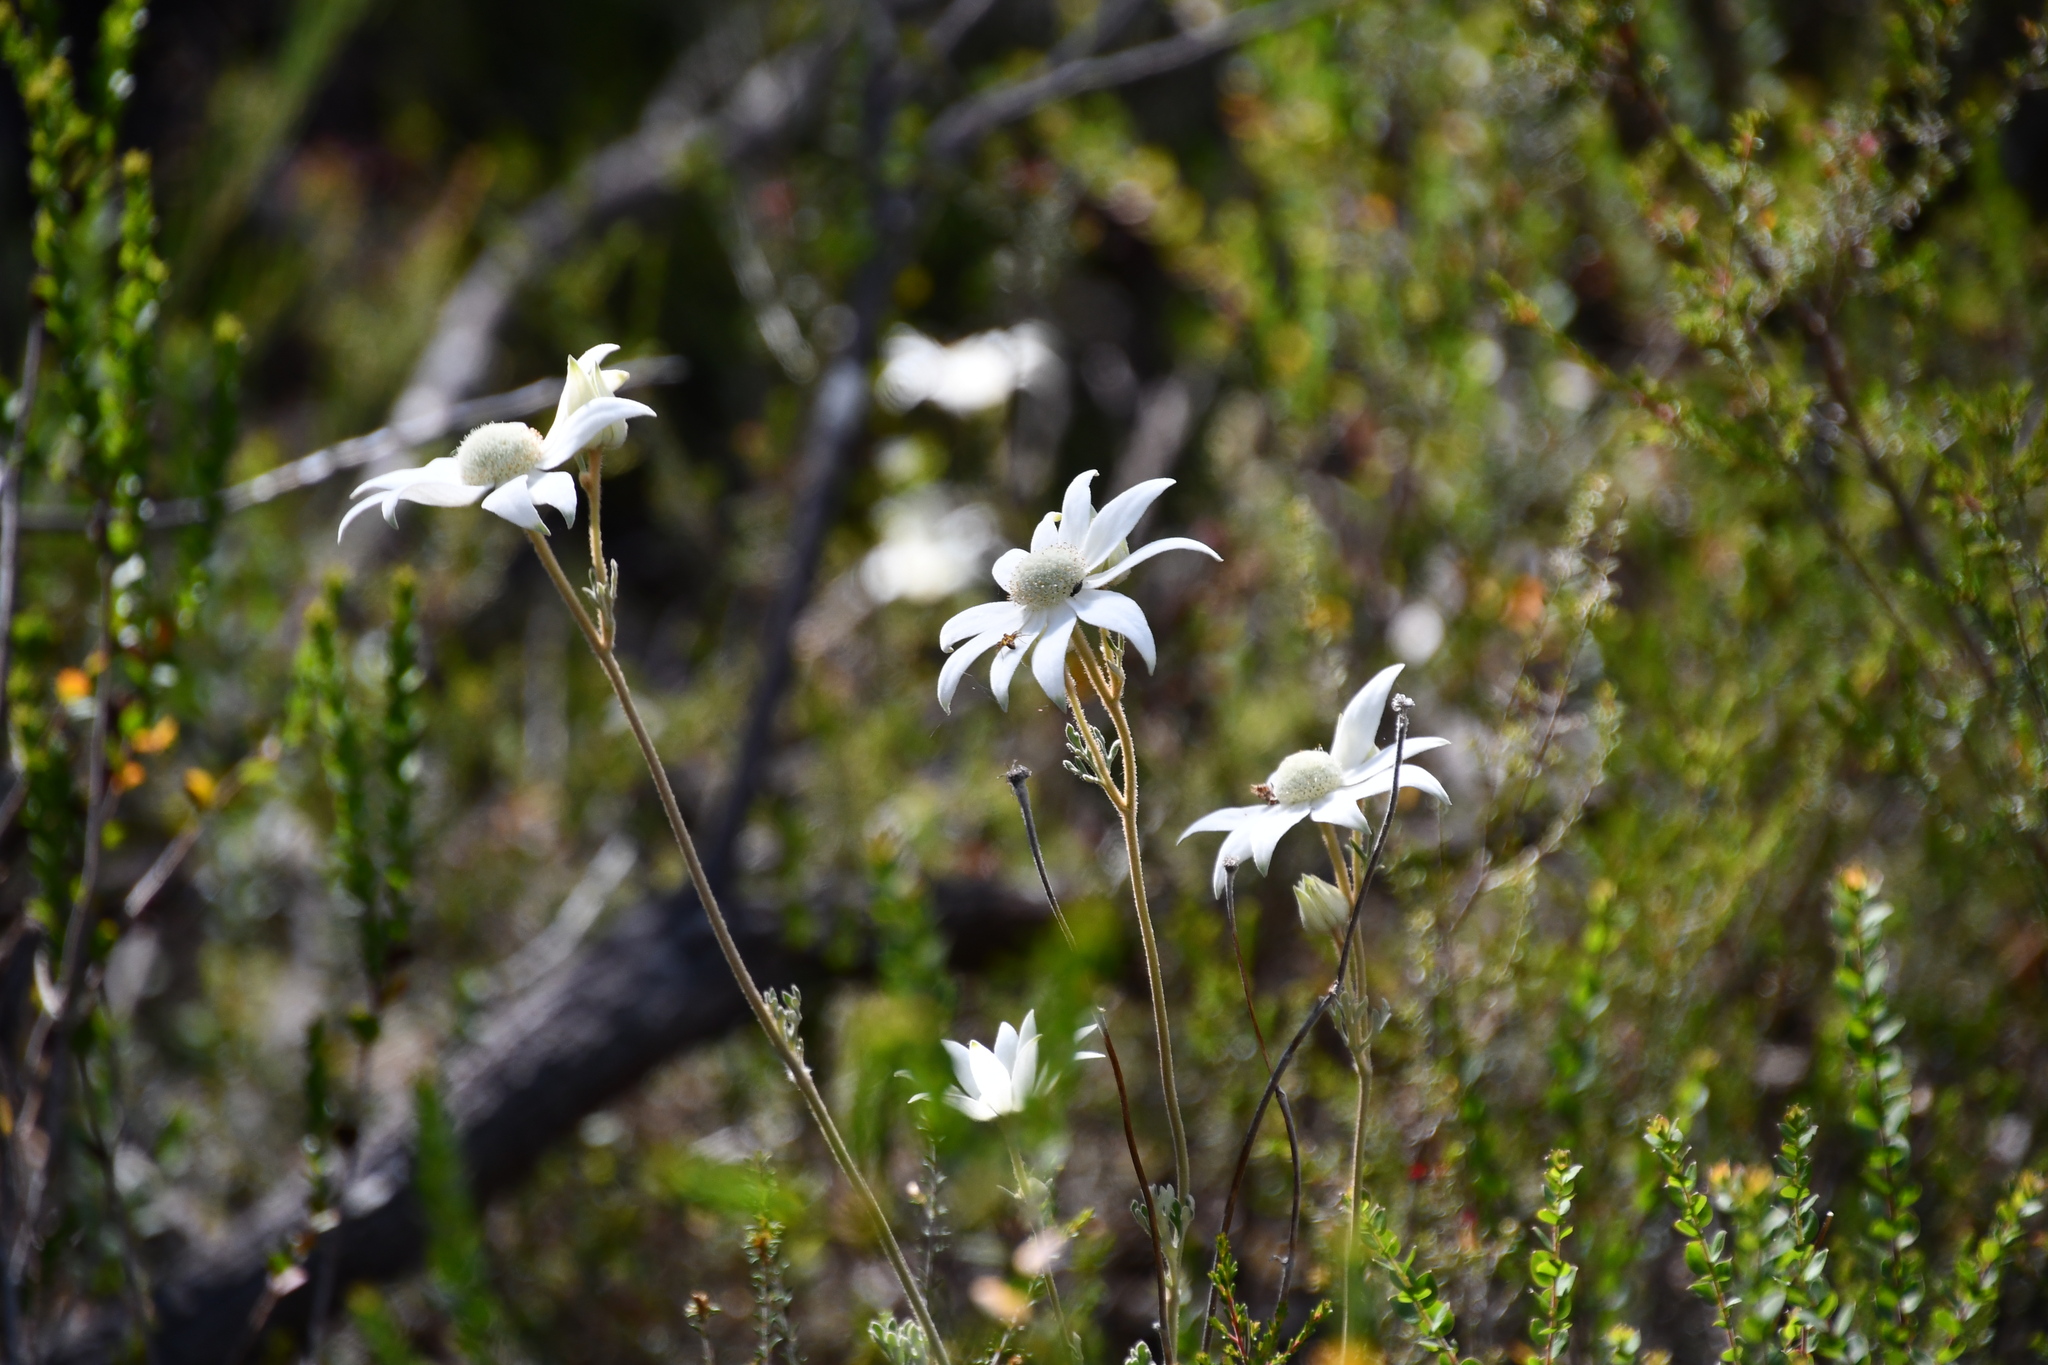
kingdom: Plantae
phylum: Tracheophyta
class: Magnoliopsida
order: Apiales
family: Apiaceae
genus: Actinotus
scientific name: Actinotus helianthi
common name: Flannel-flower
